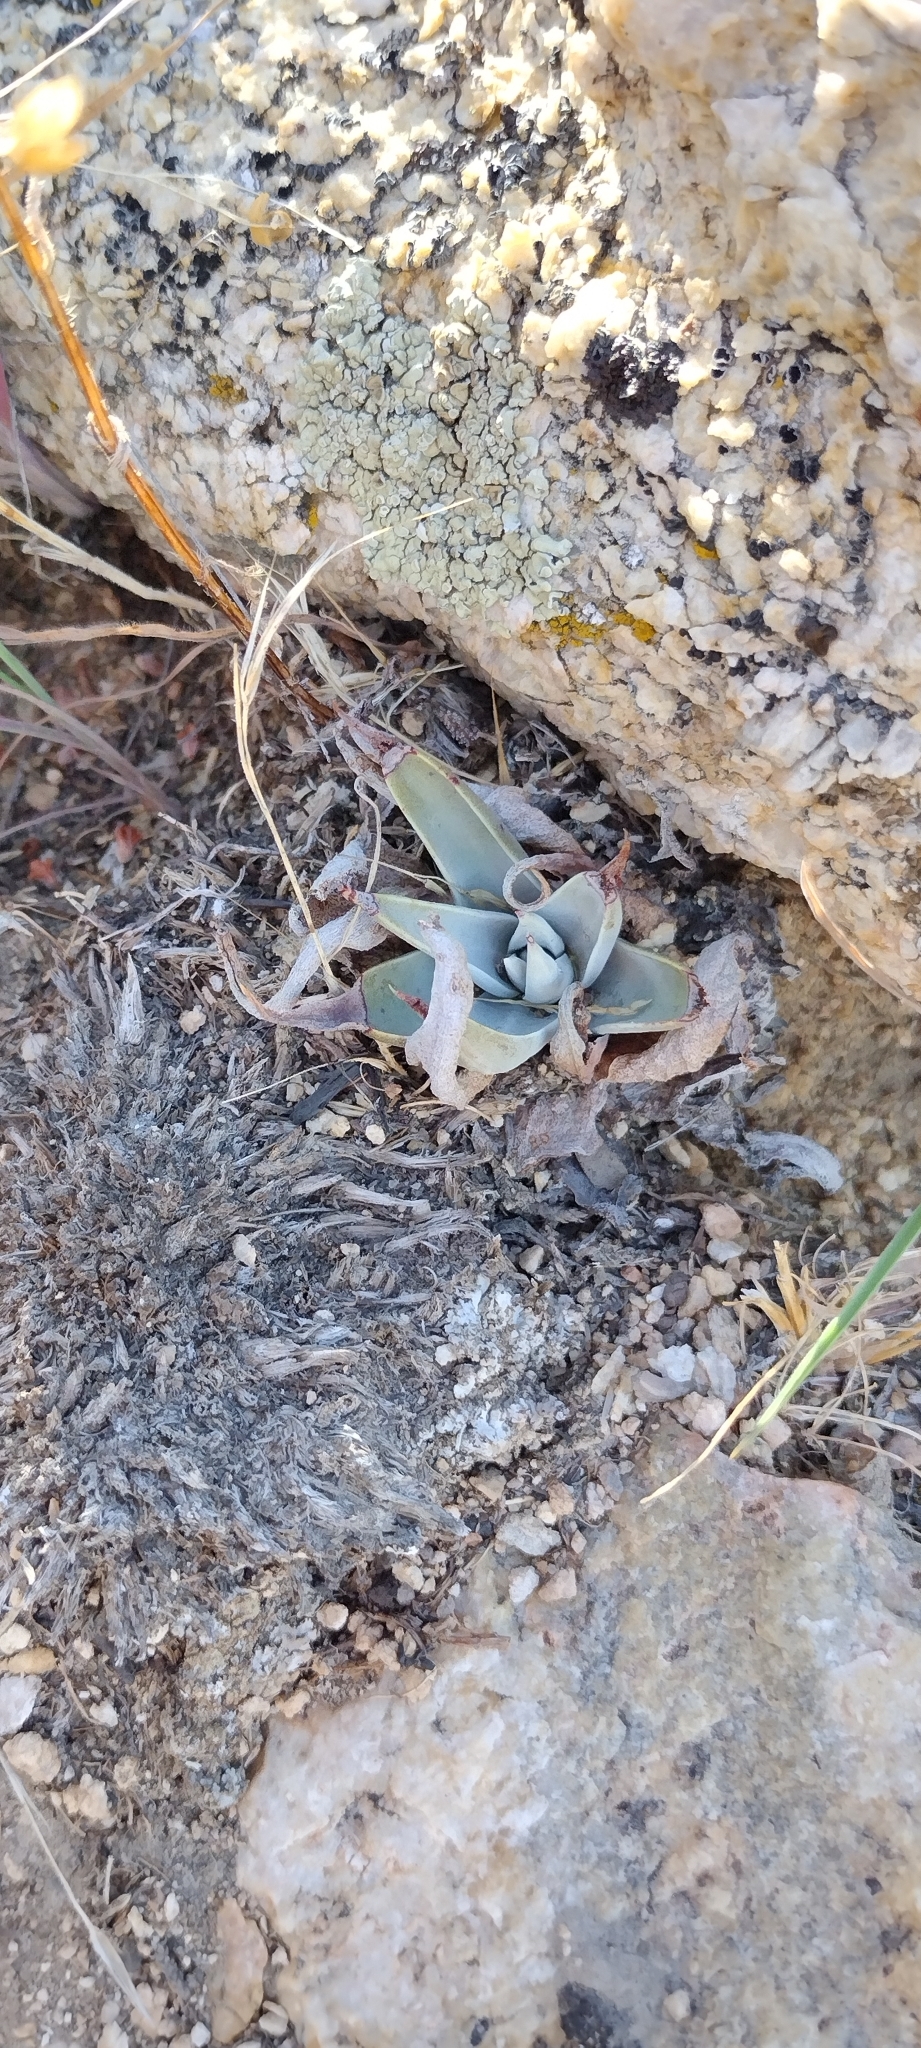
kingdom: Plantae
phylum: Tracheophyta
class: Magnoliopsida
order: Saxifragales
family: Crassulaceae
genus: Dudleya
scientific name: Dudleya lanceolata
